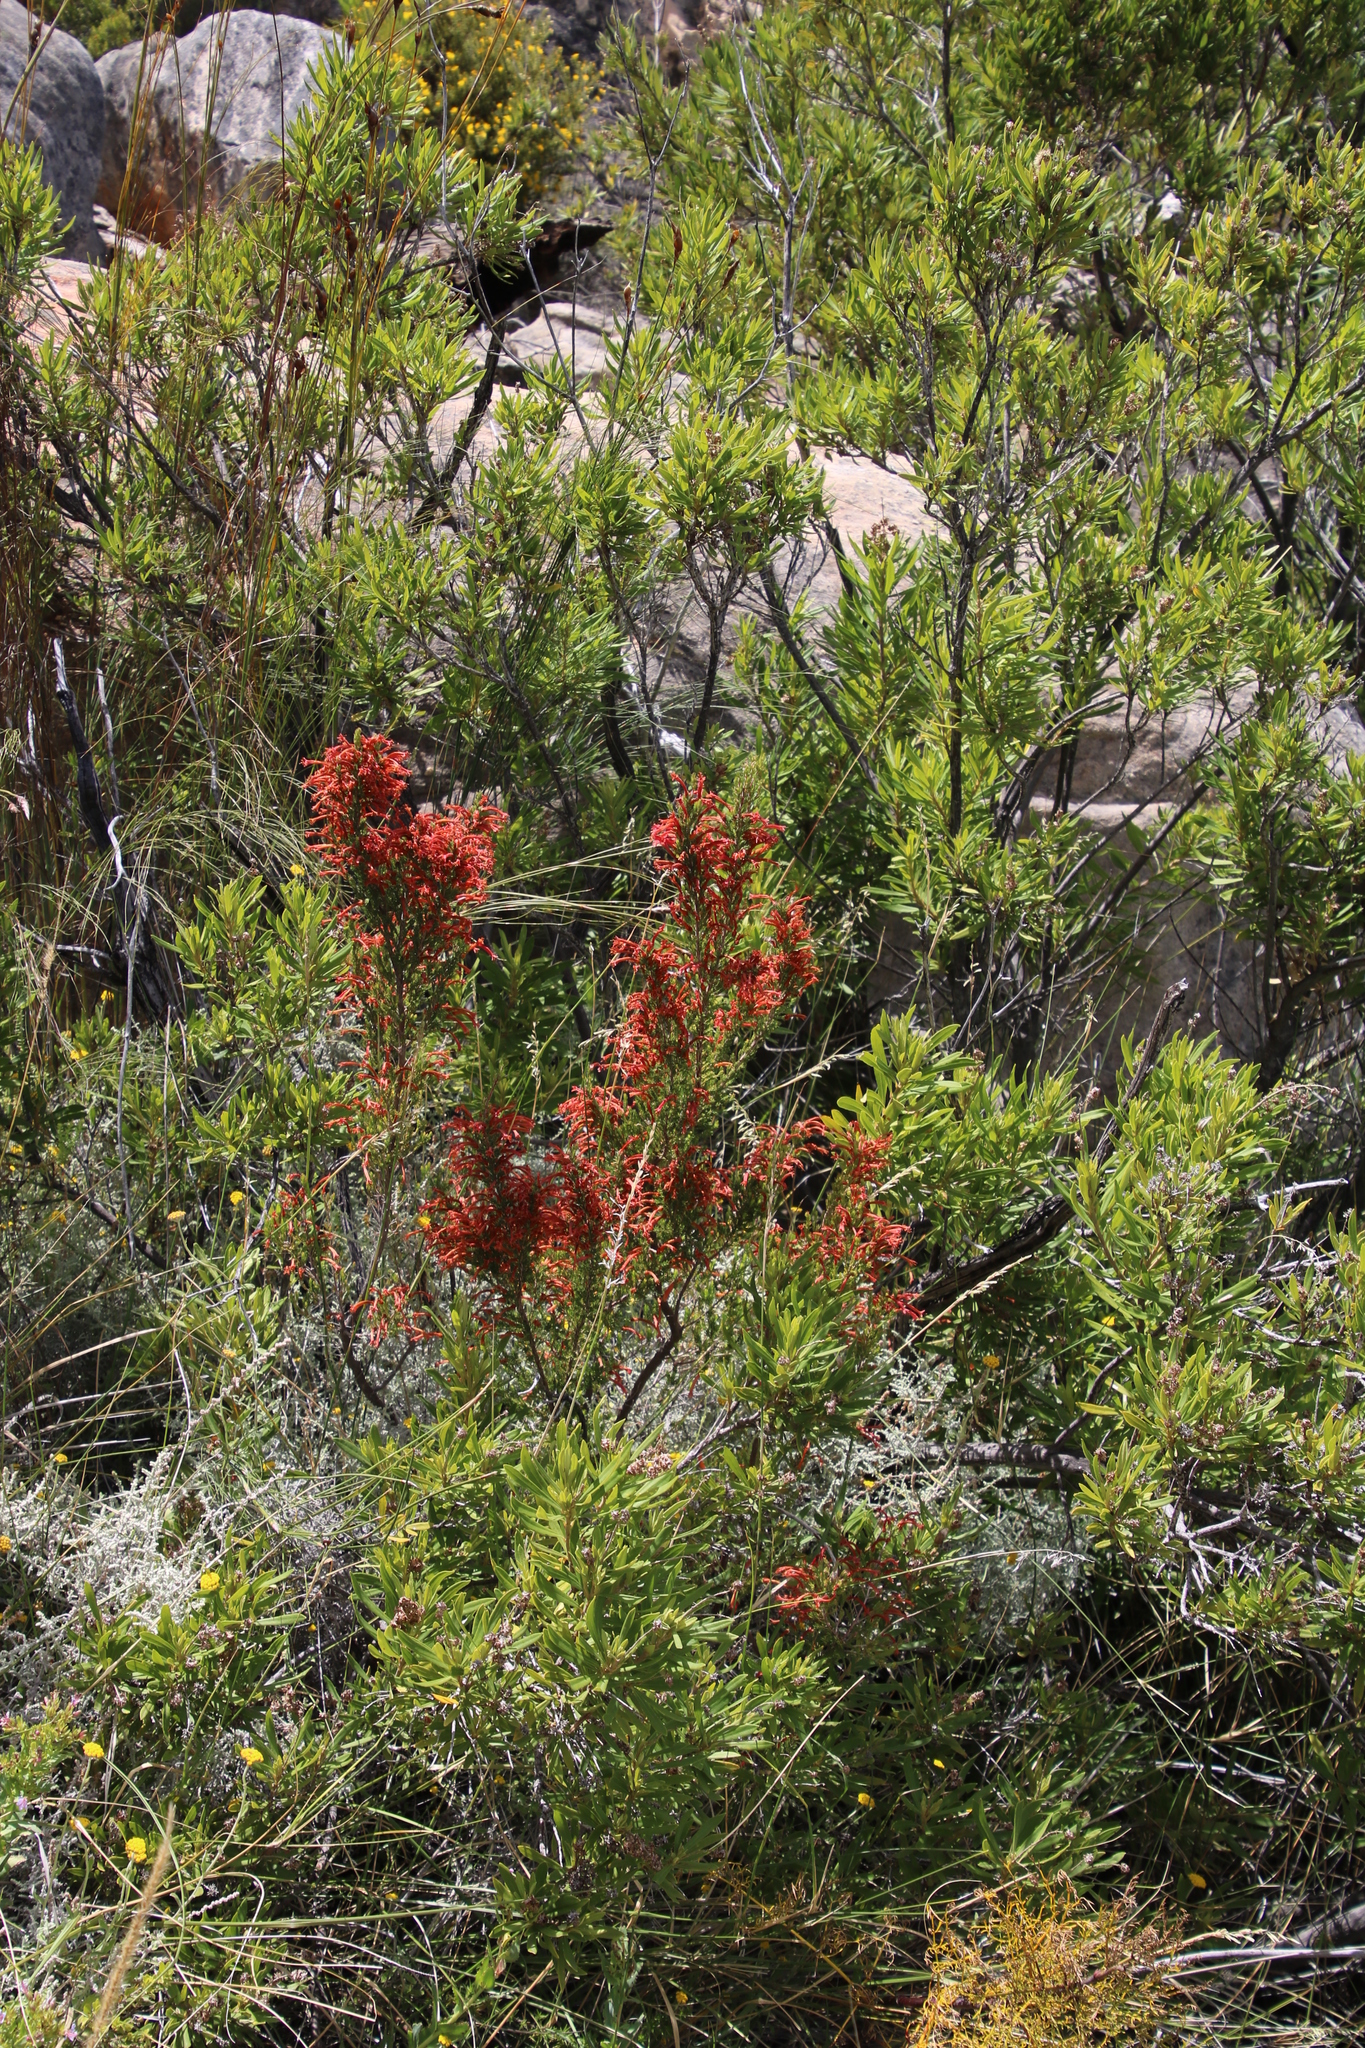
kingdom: Plantae
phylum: Tracheophyta
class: Magnoliopsida
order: Ericales
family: Ericaceae
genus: Erica
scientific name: Erica curviflora
